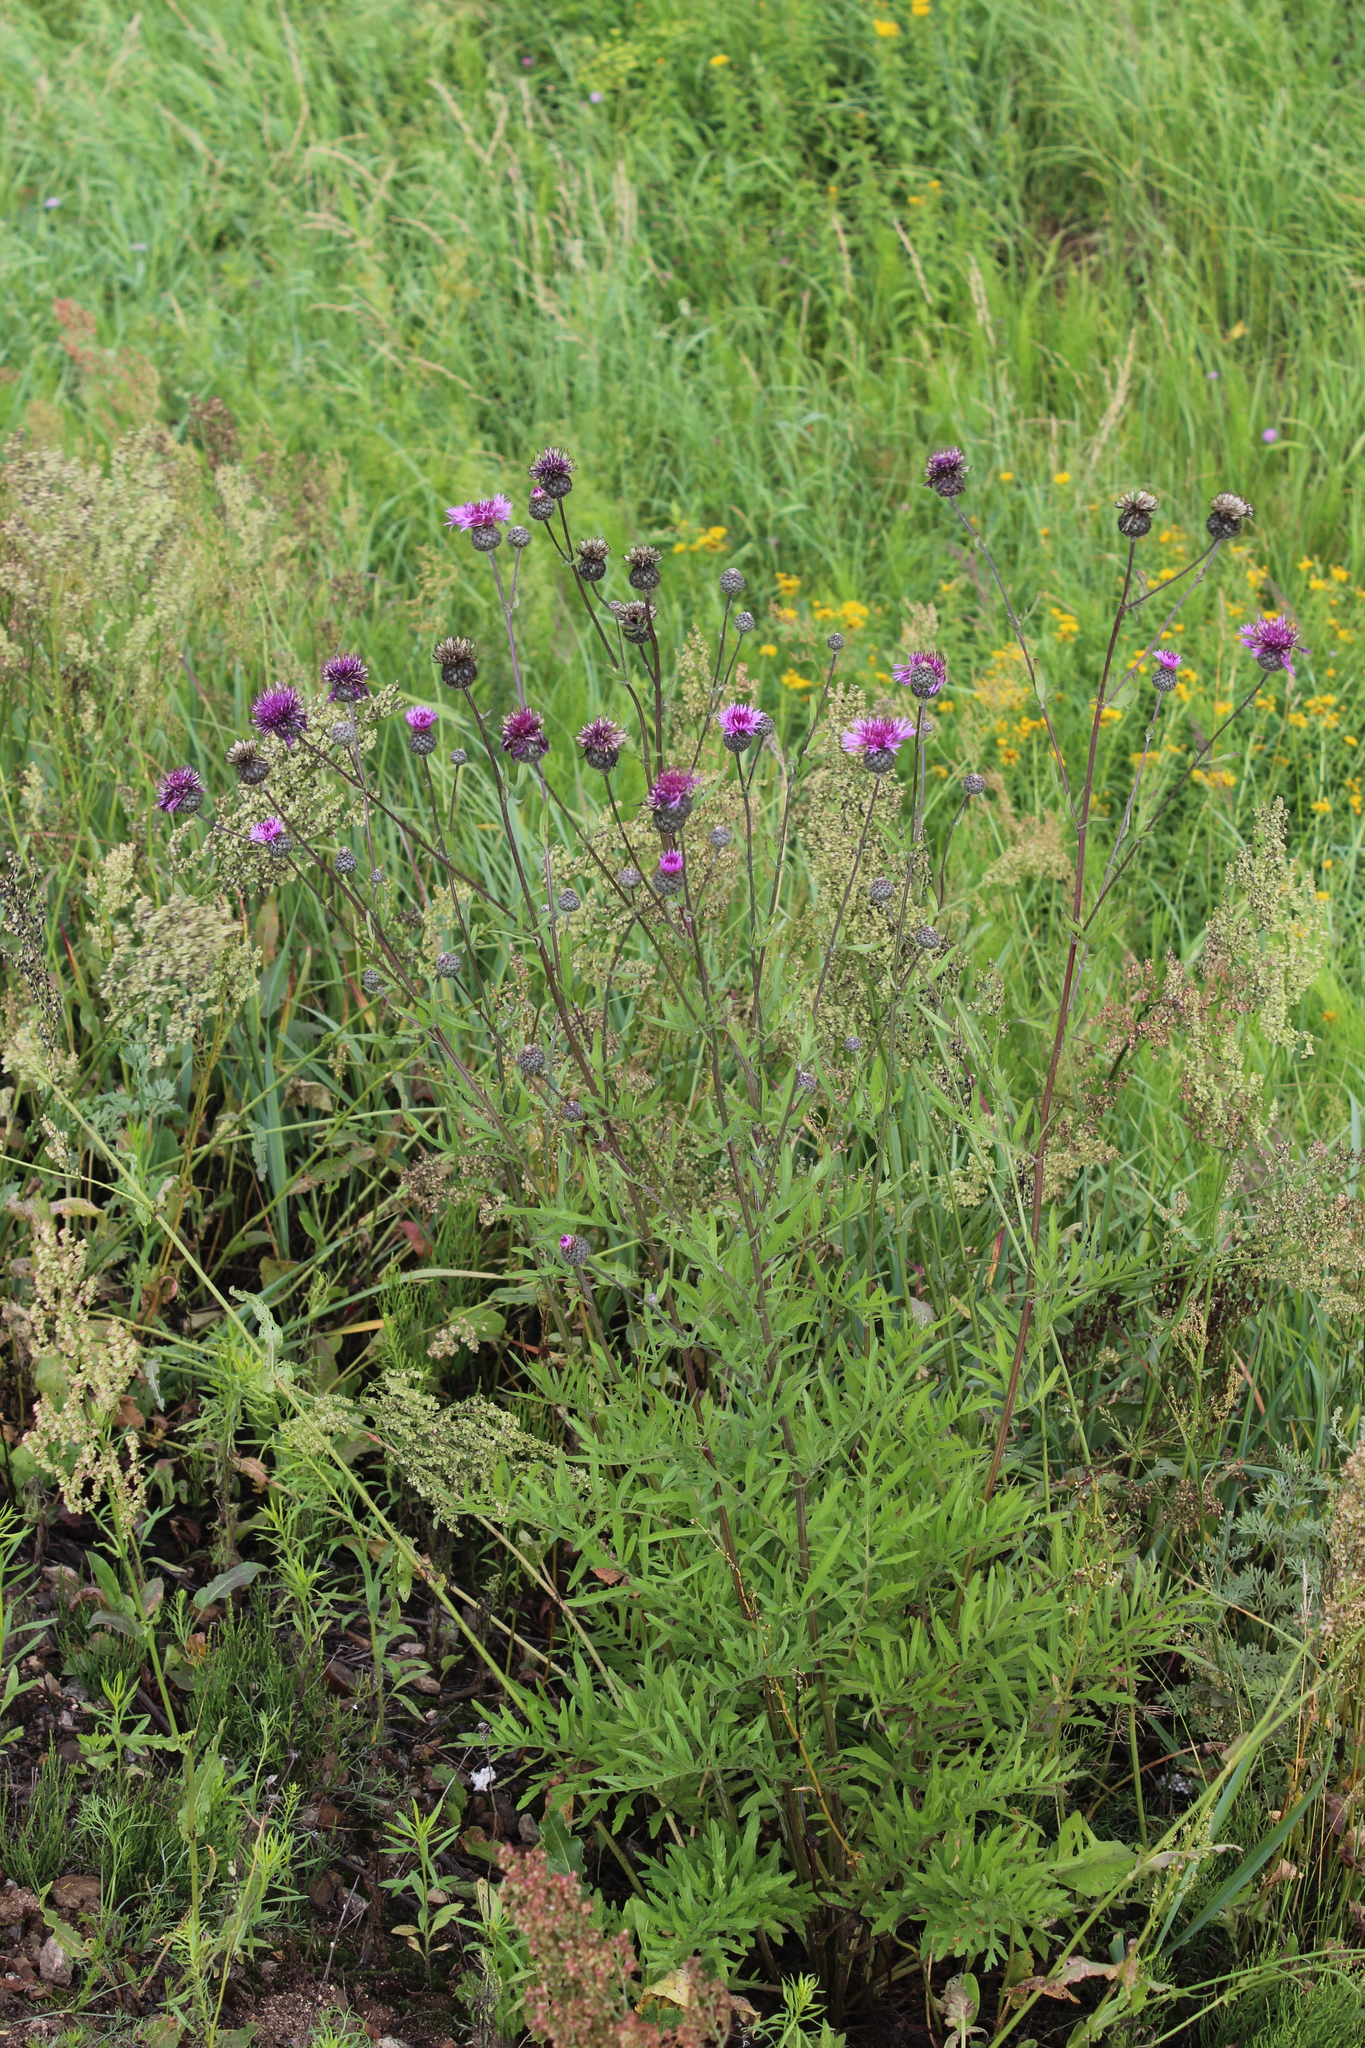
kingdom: Plantae
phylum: Tracheophyta
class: Magnoliopsida
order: Asterales
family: Asteraceae
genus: Centaurea
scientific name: Centaurea scabiosa
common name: Greater knapweed
